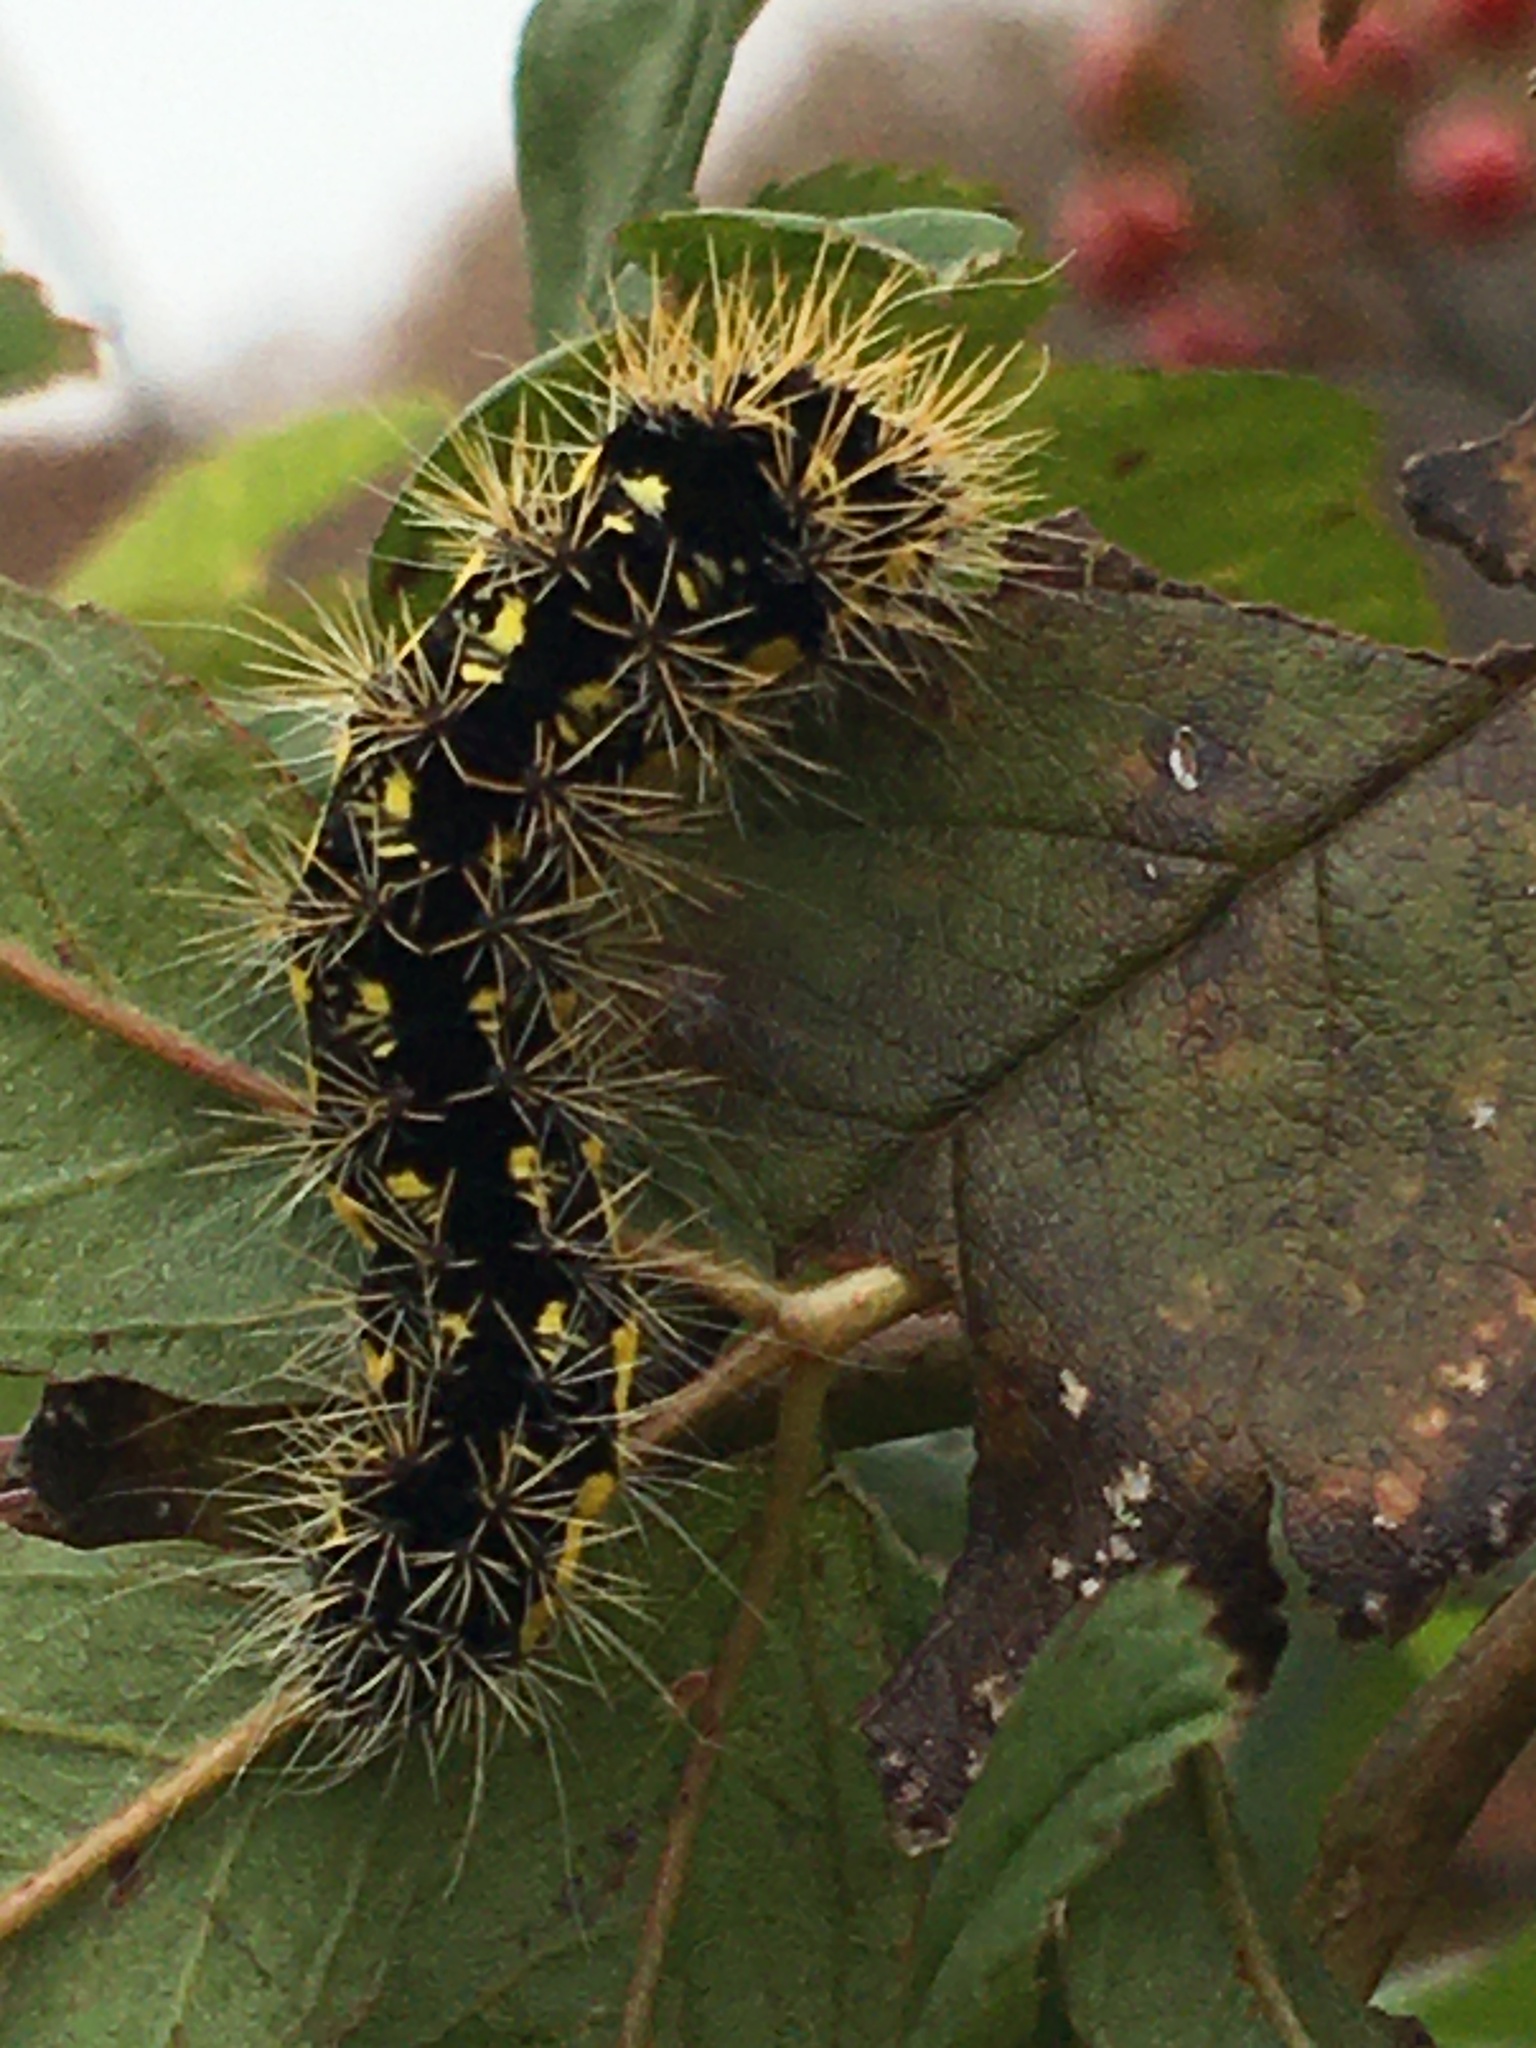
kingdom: Animalia
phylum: Arthropoda
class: Insecta
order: Lepidoptera
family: Noctuidae
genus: Acronicta
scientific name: Acronicta oblinita
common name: Smeared dagger
